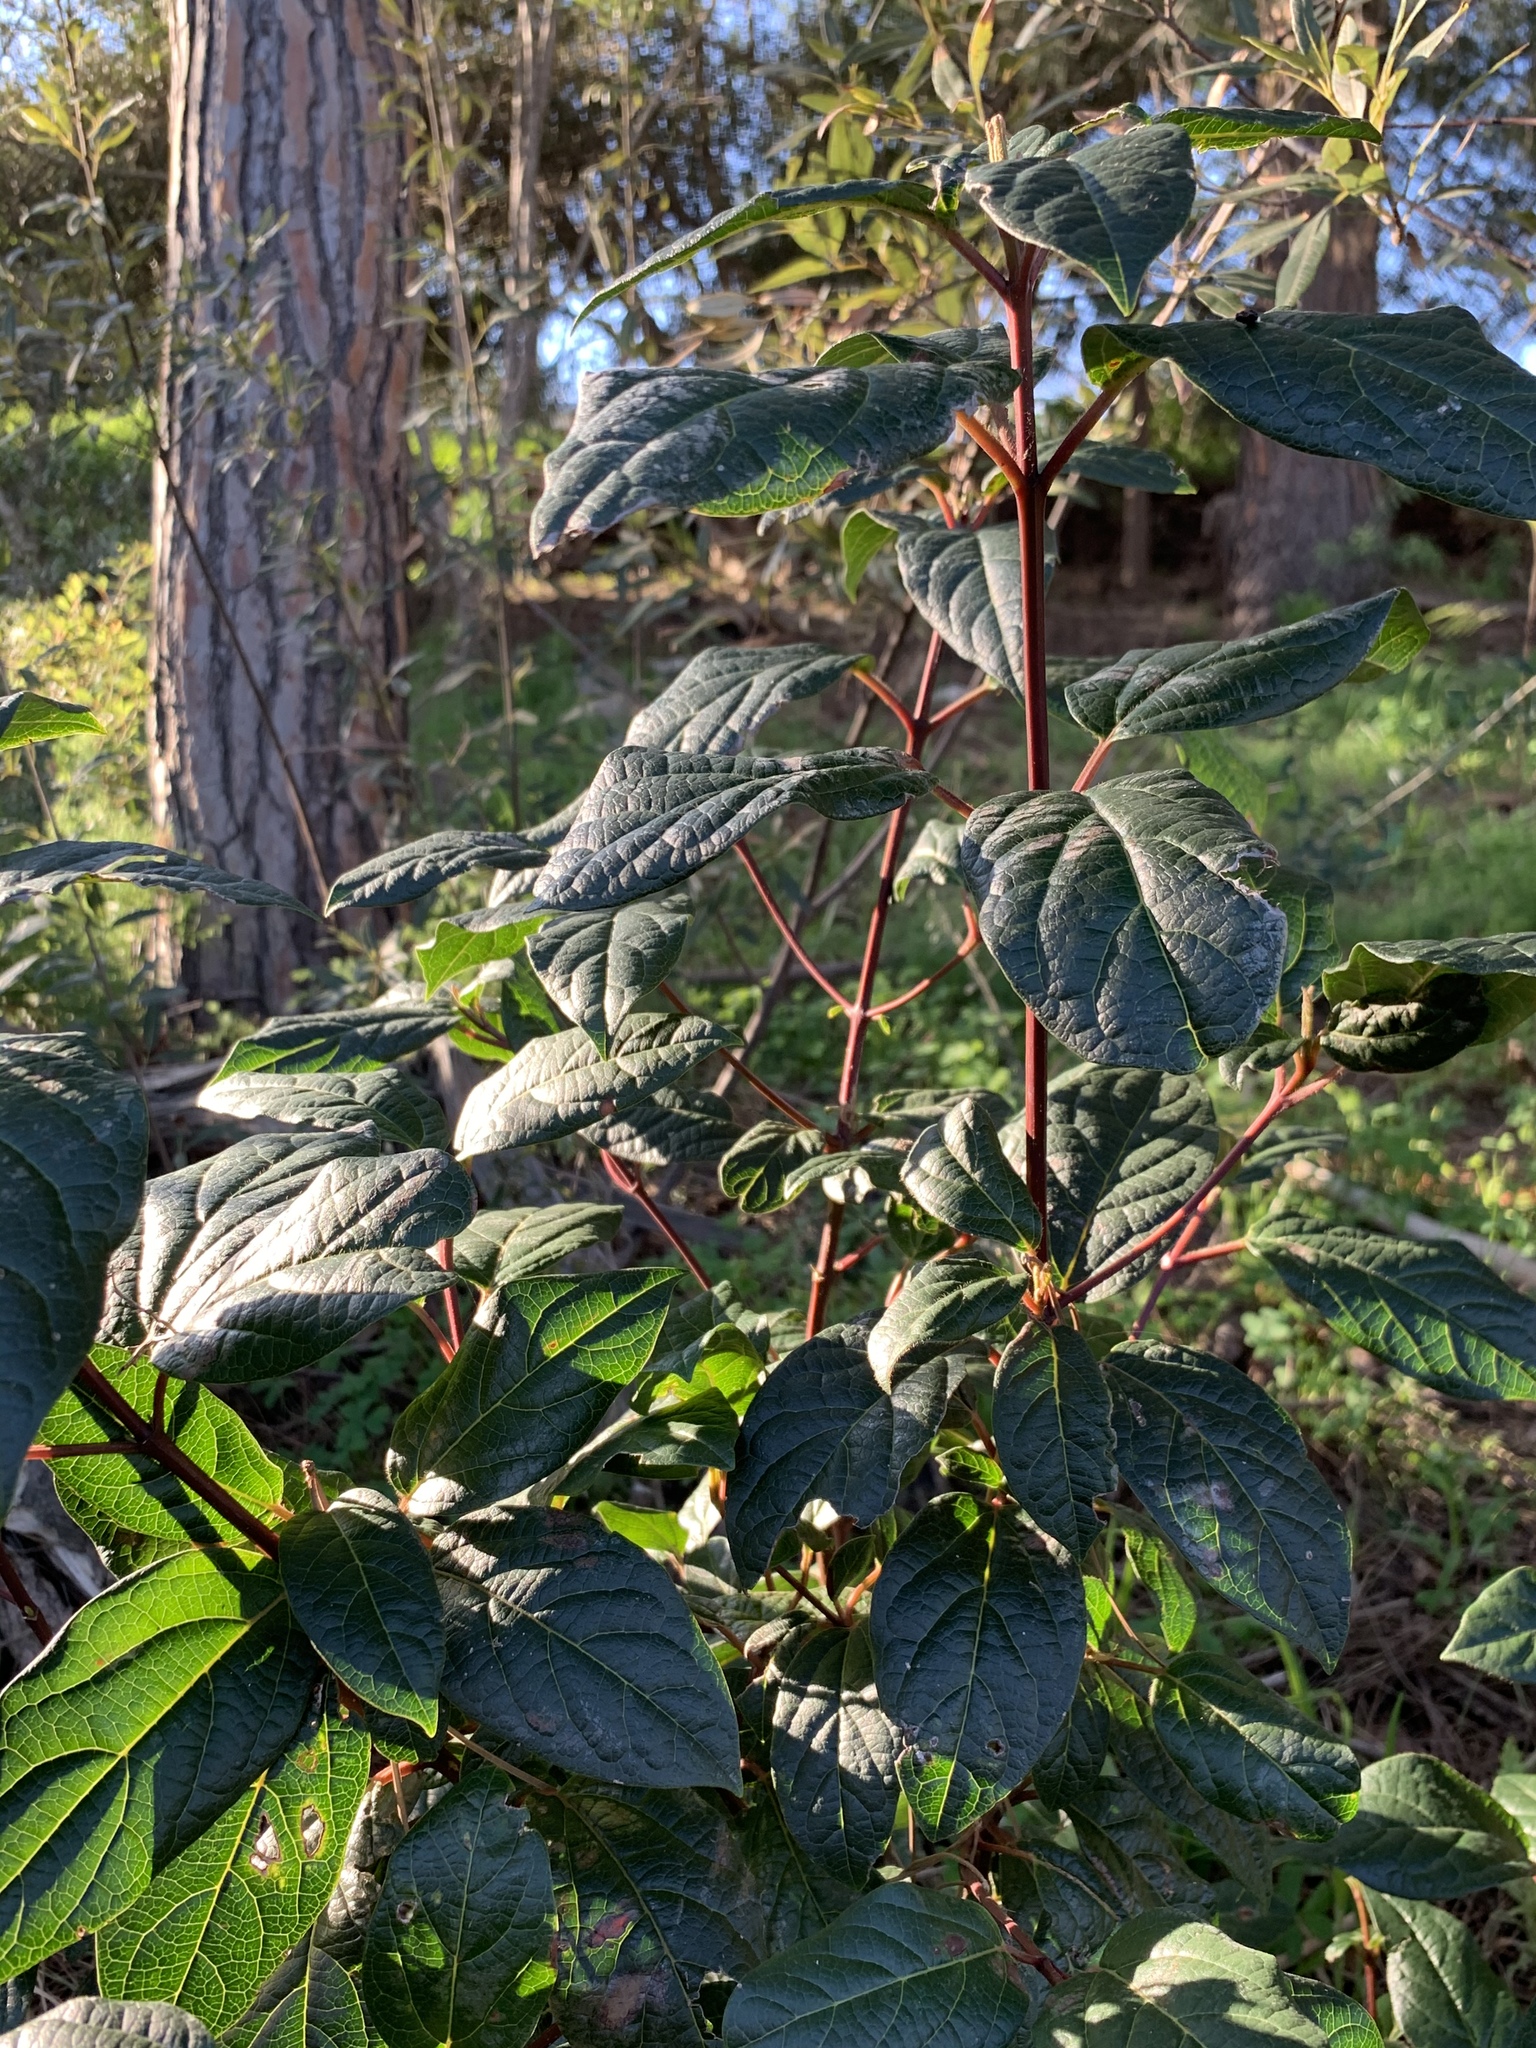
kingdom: Plantae
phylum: Tracheophyta
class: Magnoliopsida
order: Dipsacales
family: Viburnaceae
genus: Viburnum
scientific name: Viburnum tinus
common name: Laurustinus
